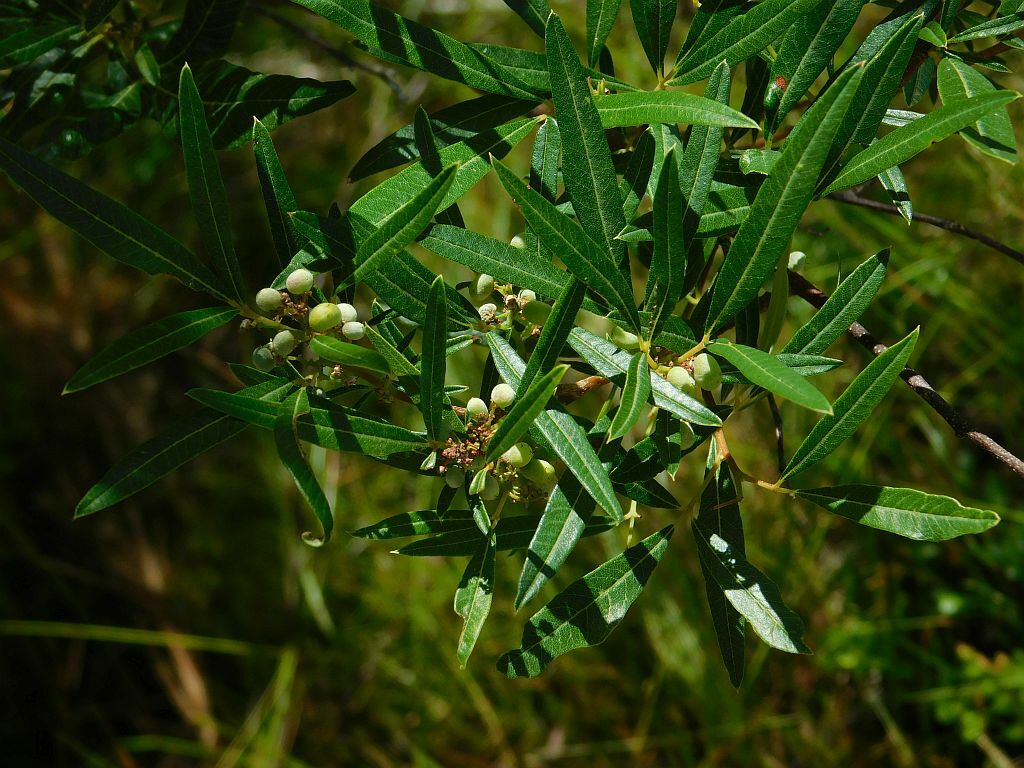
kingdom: Plantae
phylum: Tracheophyta
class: Magnoliopsida
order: Sapindales
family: Anacardiaceae
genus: Searsia
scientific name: Searsia angustifolia
